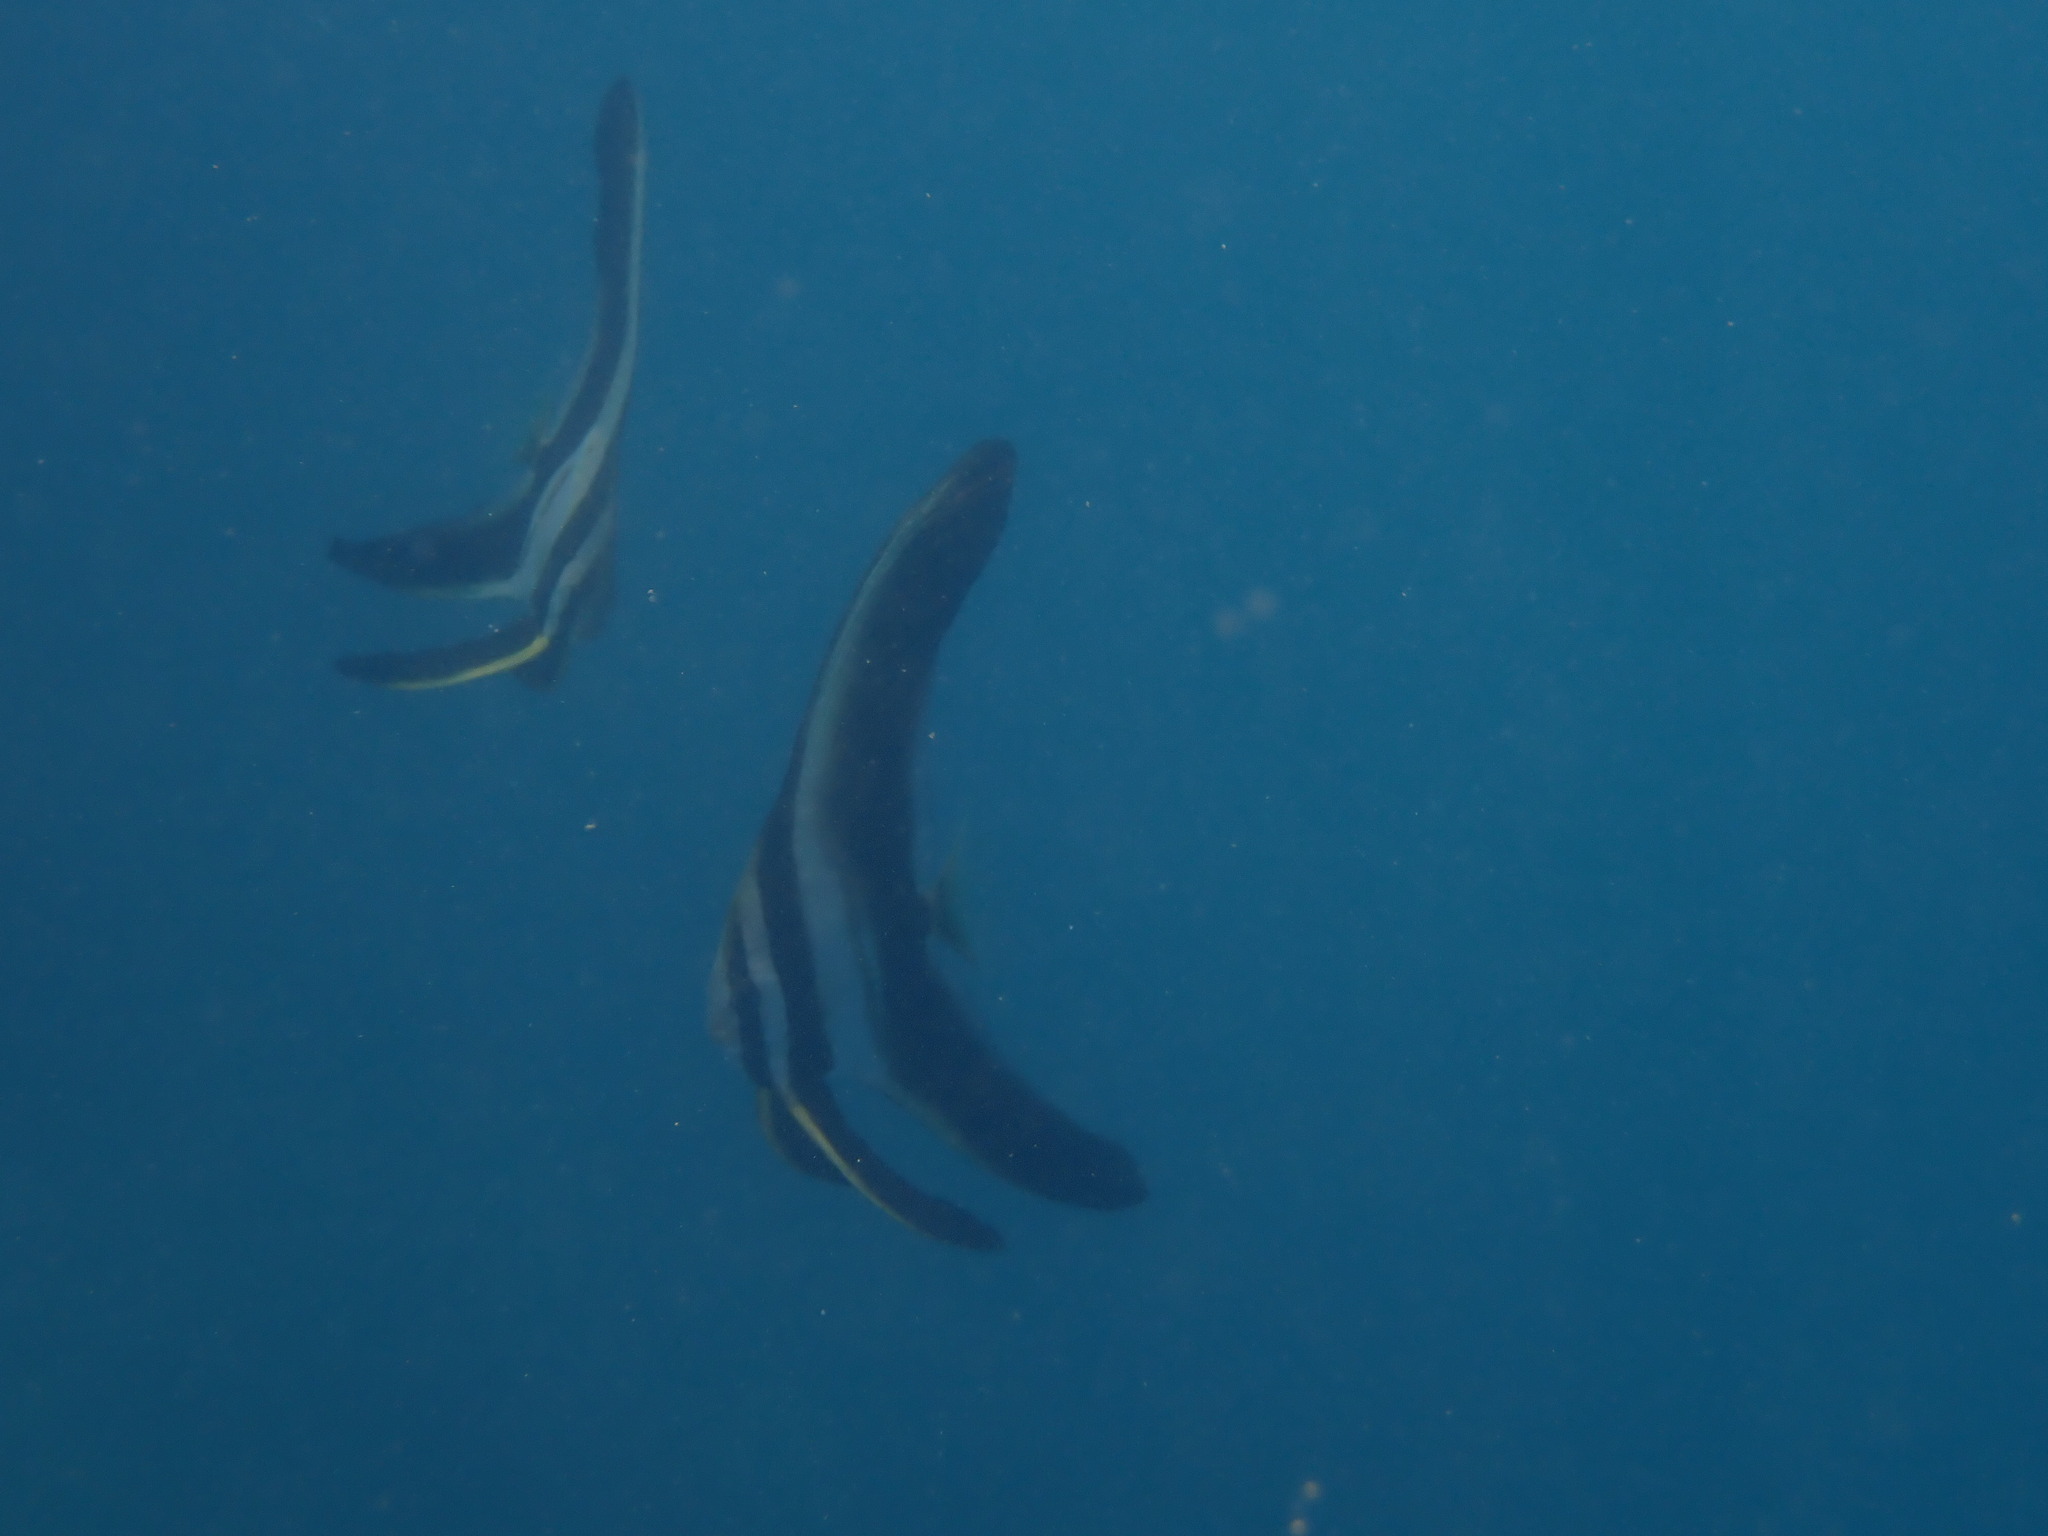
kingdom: Animalia
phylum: Chordata
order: Perciformes
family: Ephippidae
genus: Platax
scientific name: Platax teira
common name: Longfin baitfish
